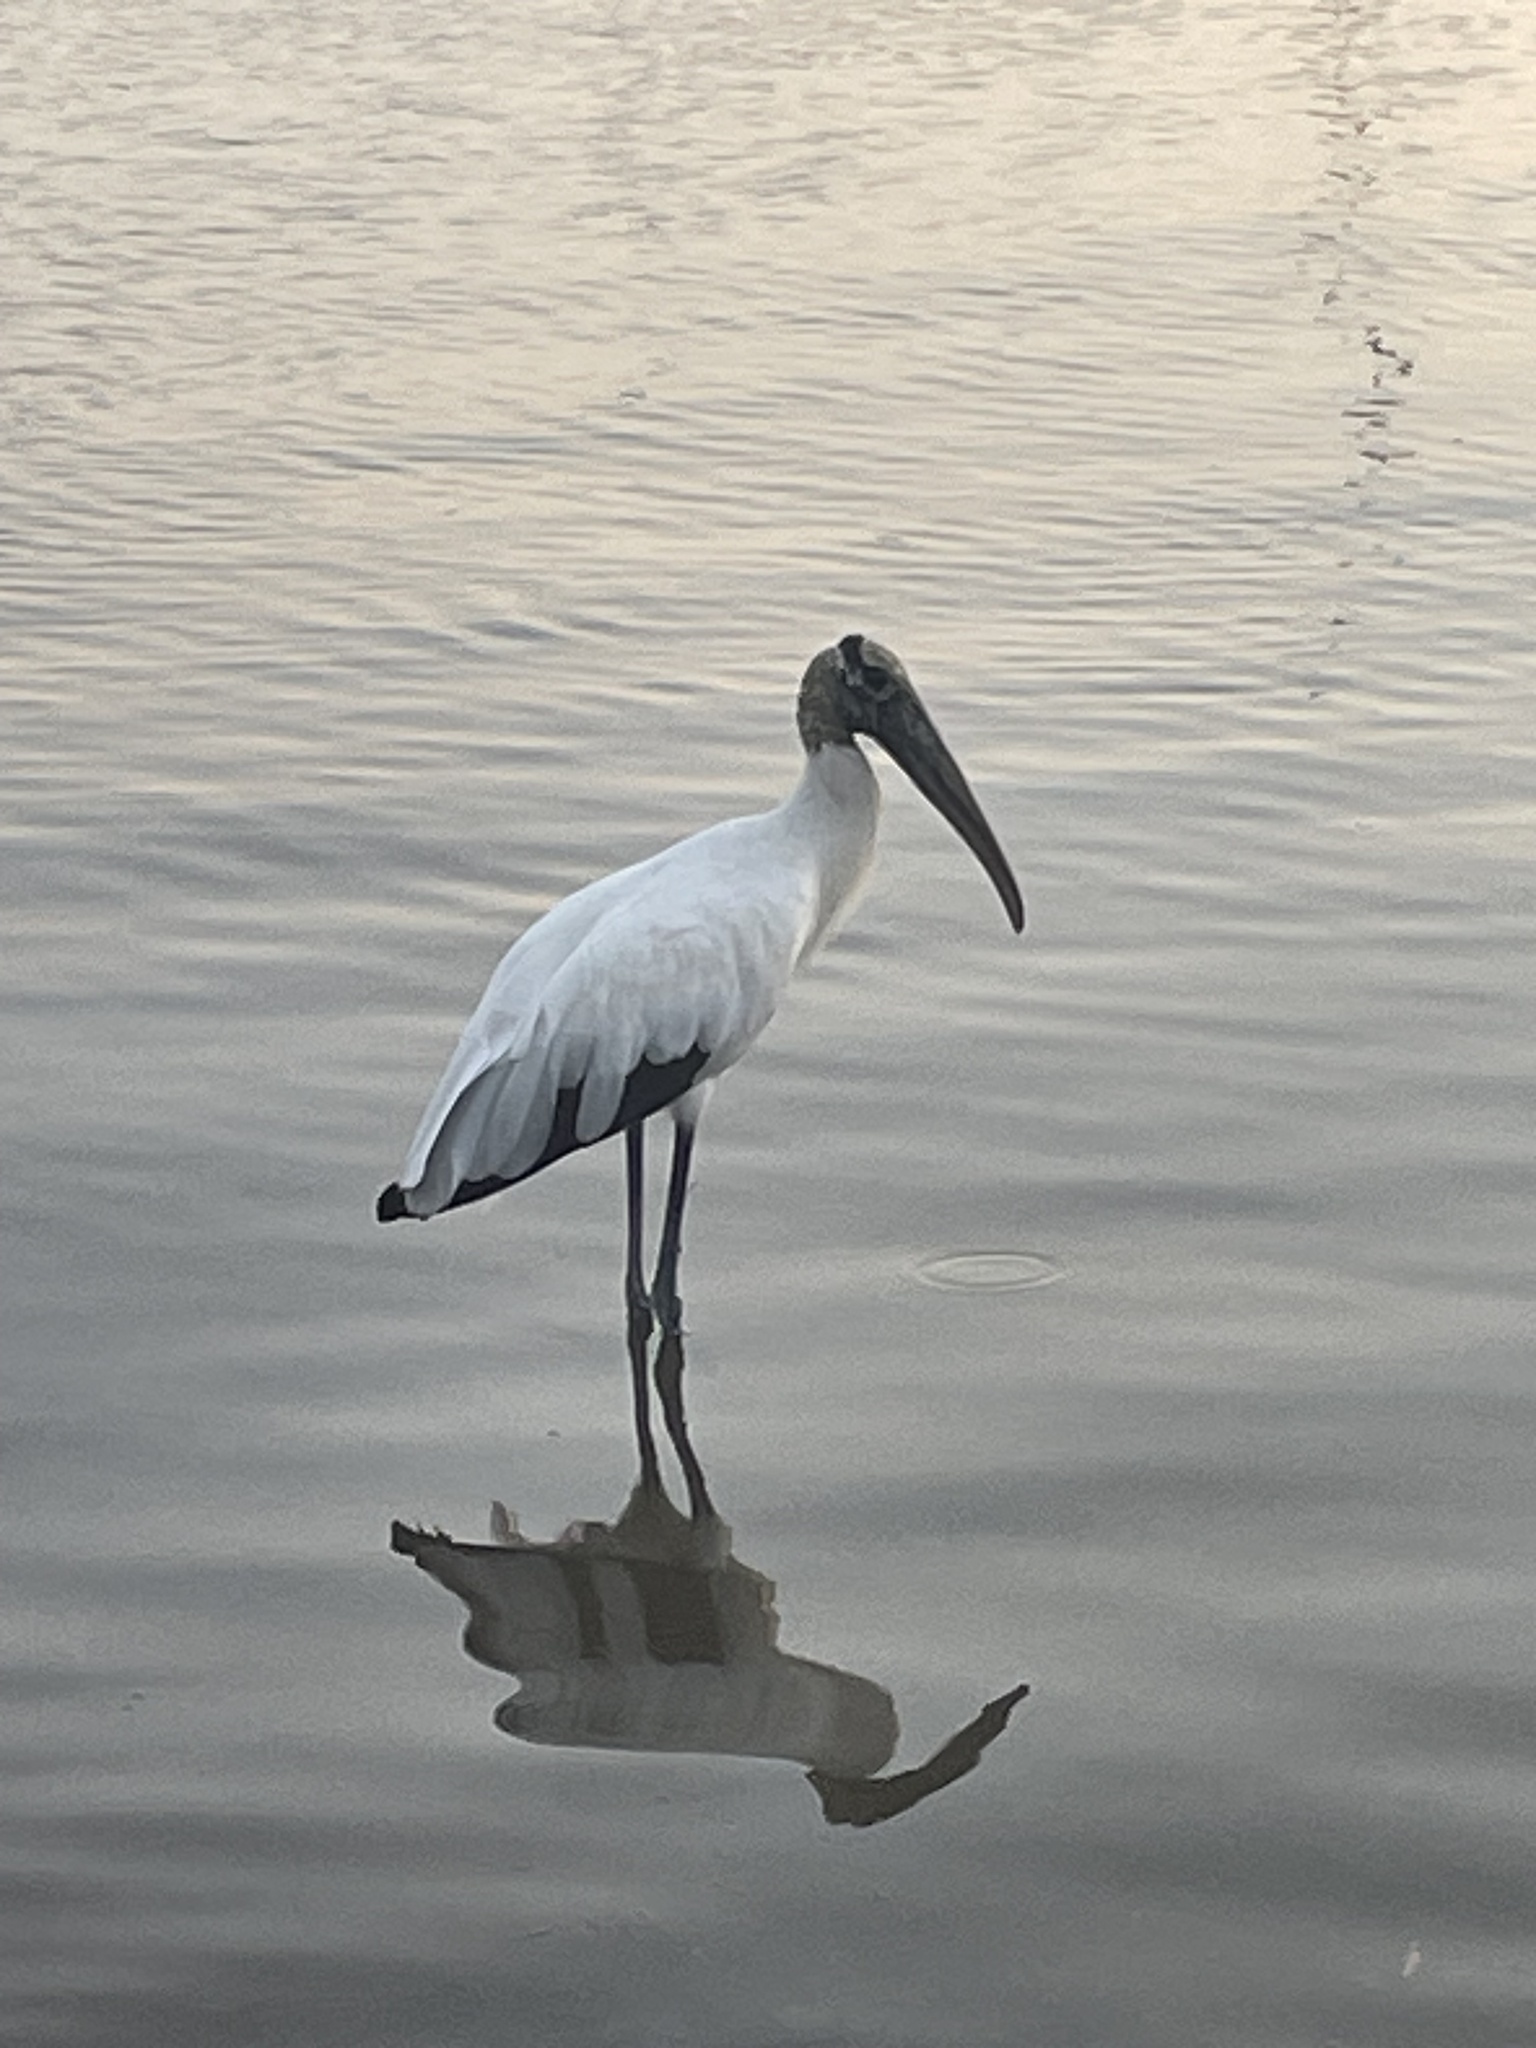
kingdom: Animalia
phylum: Chordata
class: Aves
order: Ciconiiformes
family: Ciconiidae
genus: Mycteria
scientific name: Mycteria americana
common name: Wood stork
